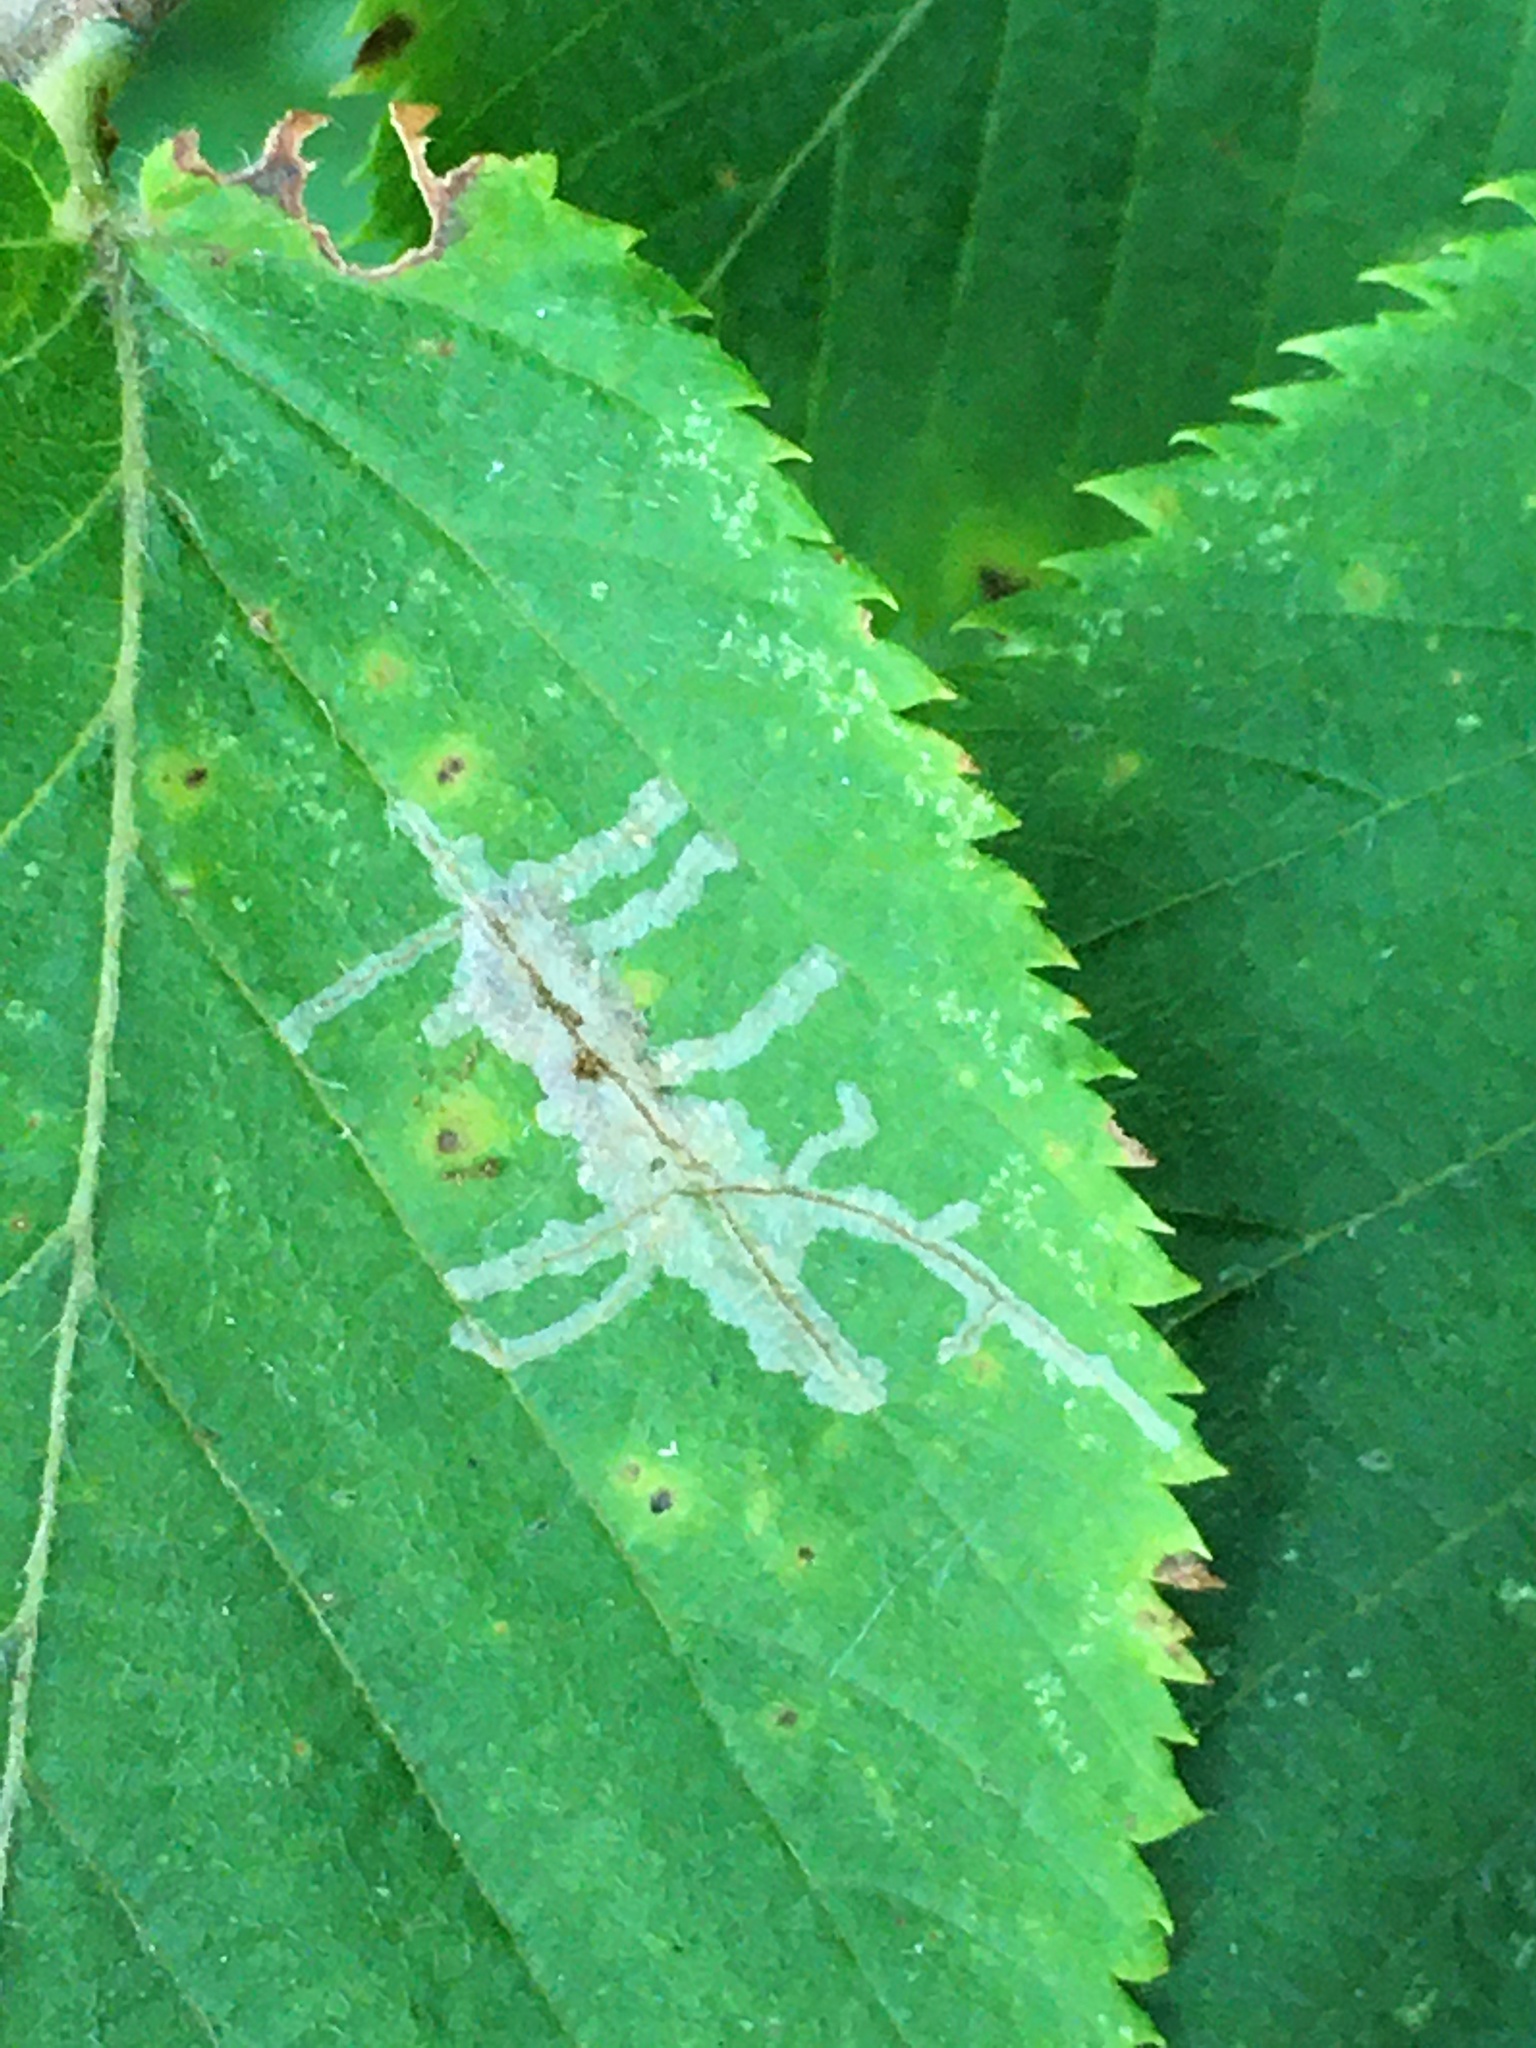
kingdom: Animalia
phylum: Arthropoda
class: Insecta
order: Lepidoptera
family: Gracillariidae
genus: Caloptilia
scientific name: Caloptilia ostryaeella
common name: Ironwood leafcone moth
